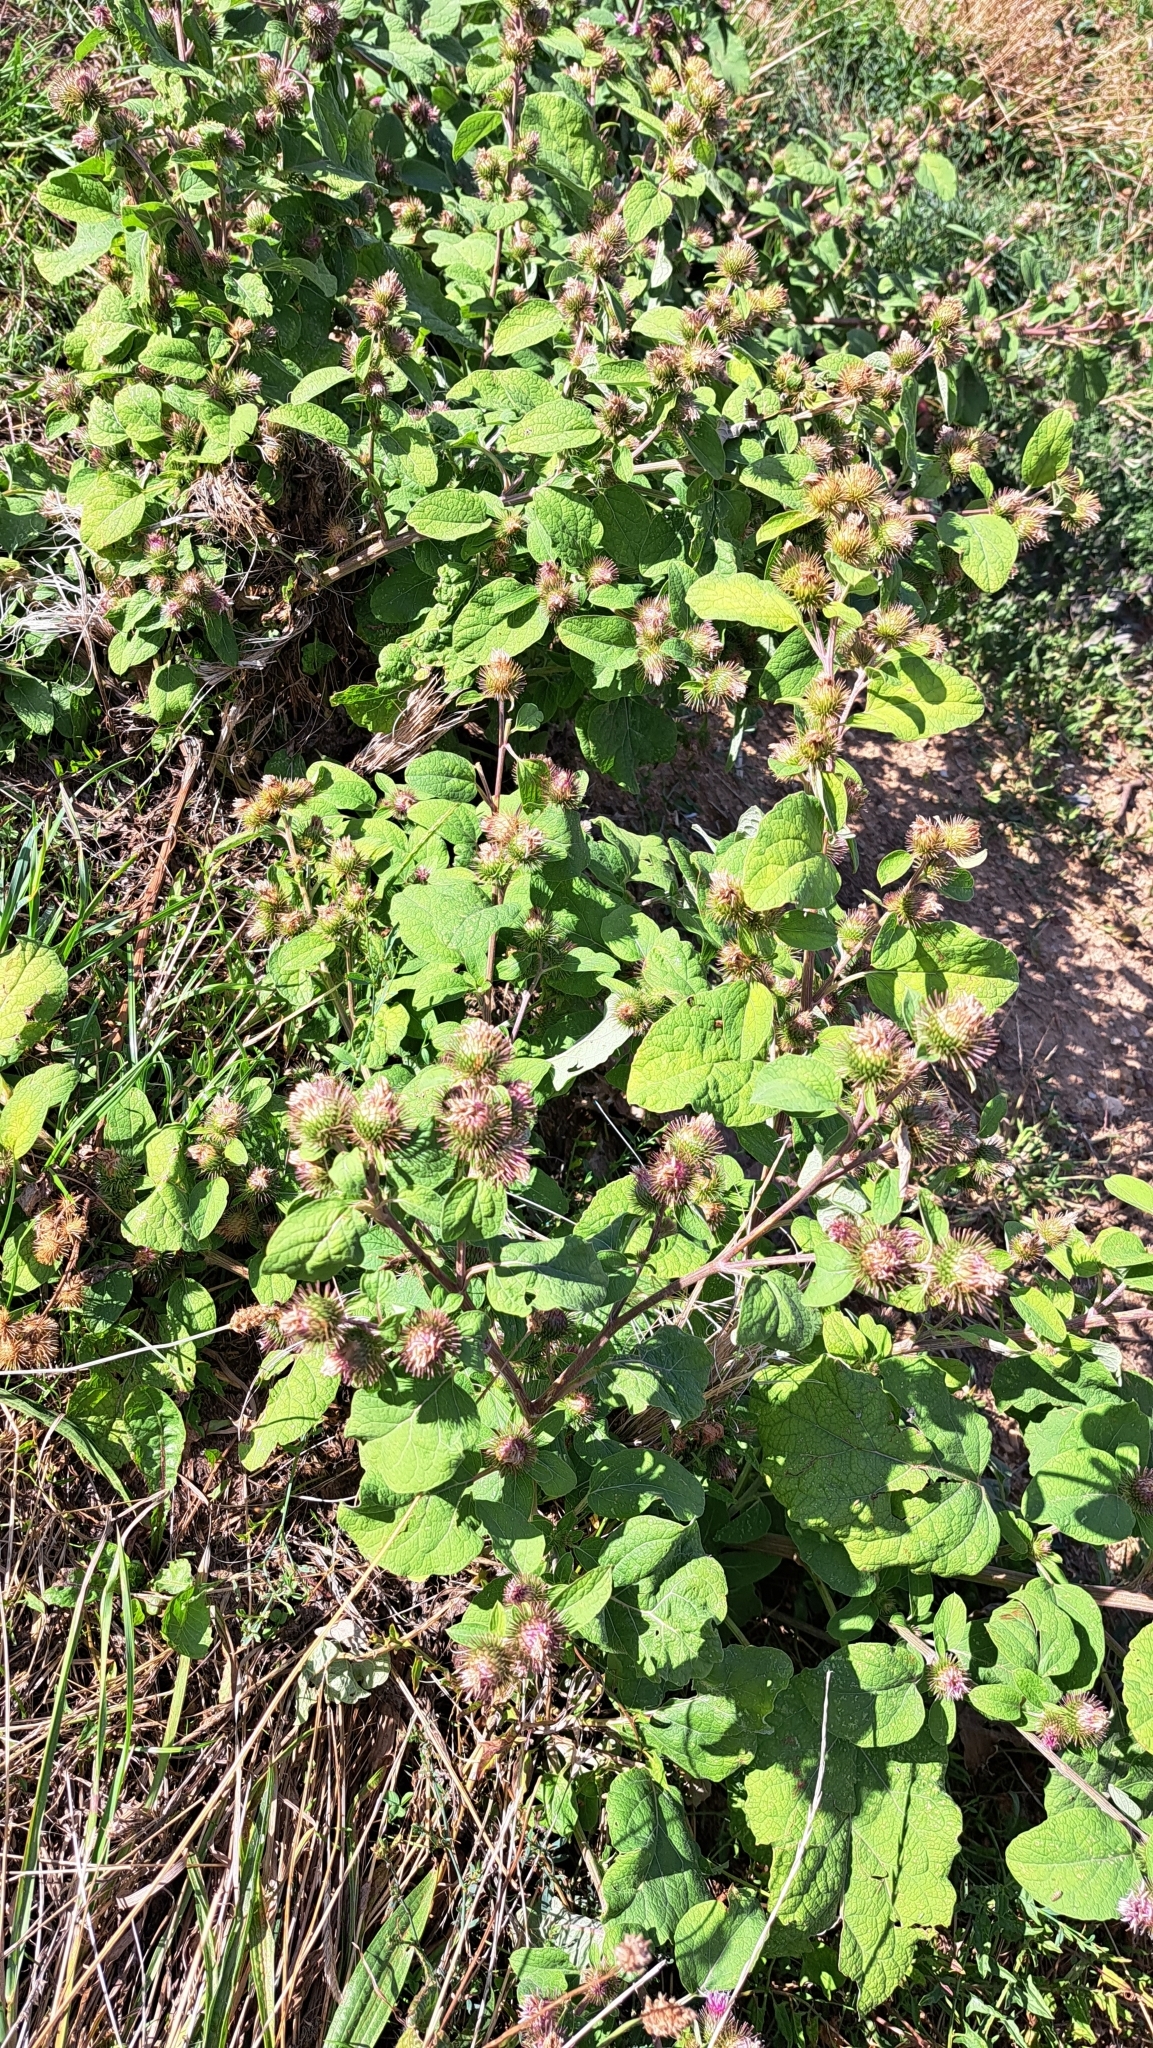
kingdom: Plantae
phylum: Tracheophyta
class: Magnoliopsida
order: Asterales
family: Asteraceae
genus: Arctium
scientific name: Arctium minus
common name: Lesser burdock
